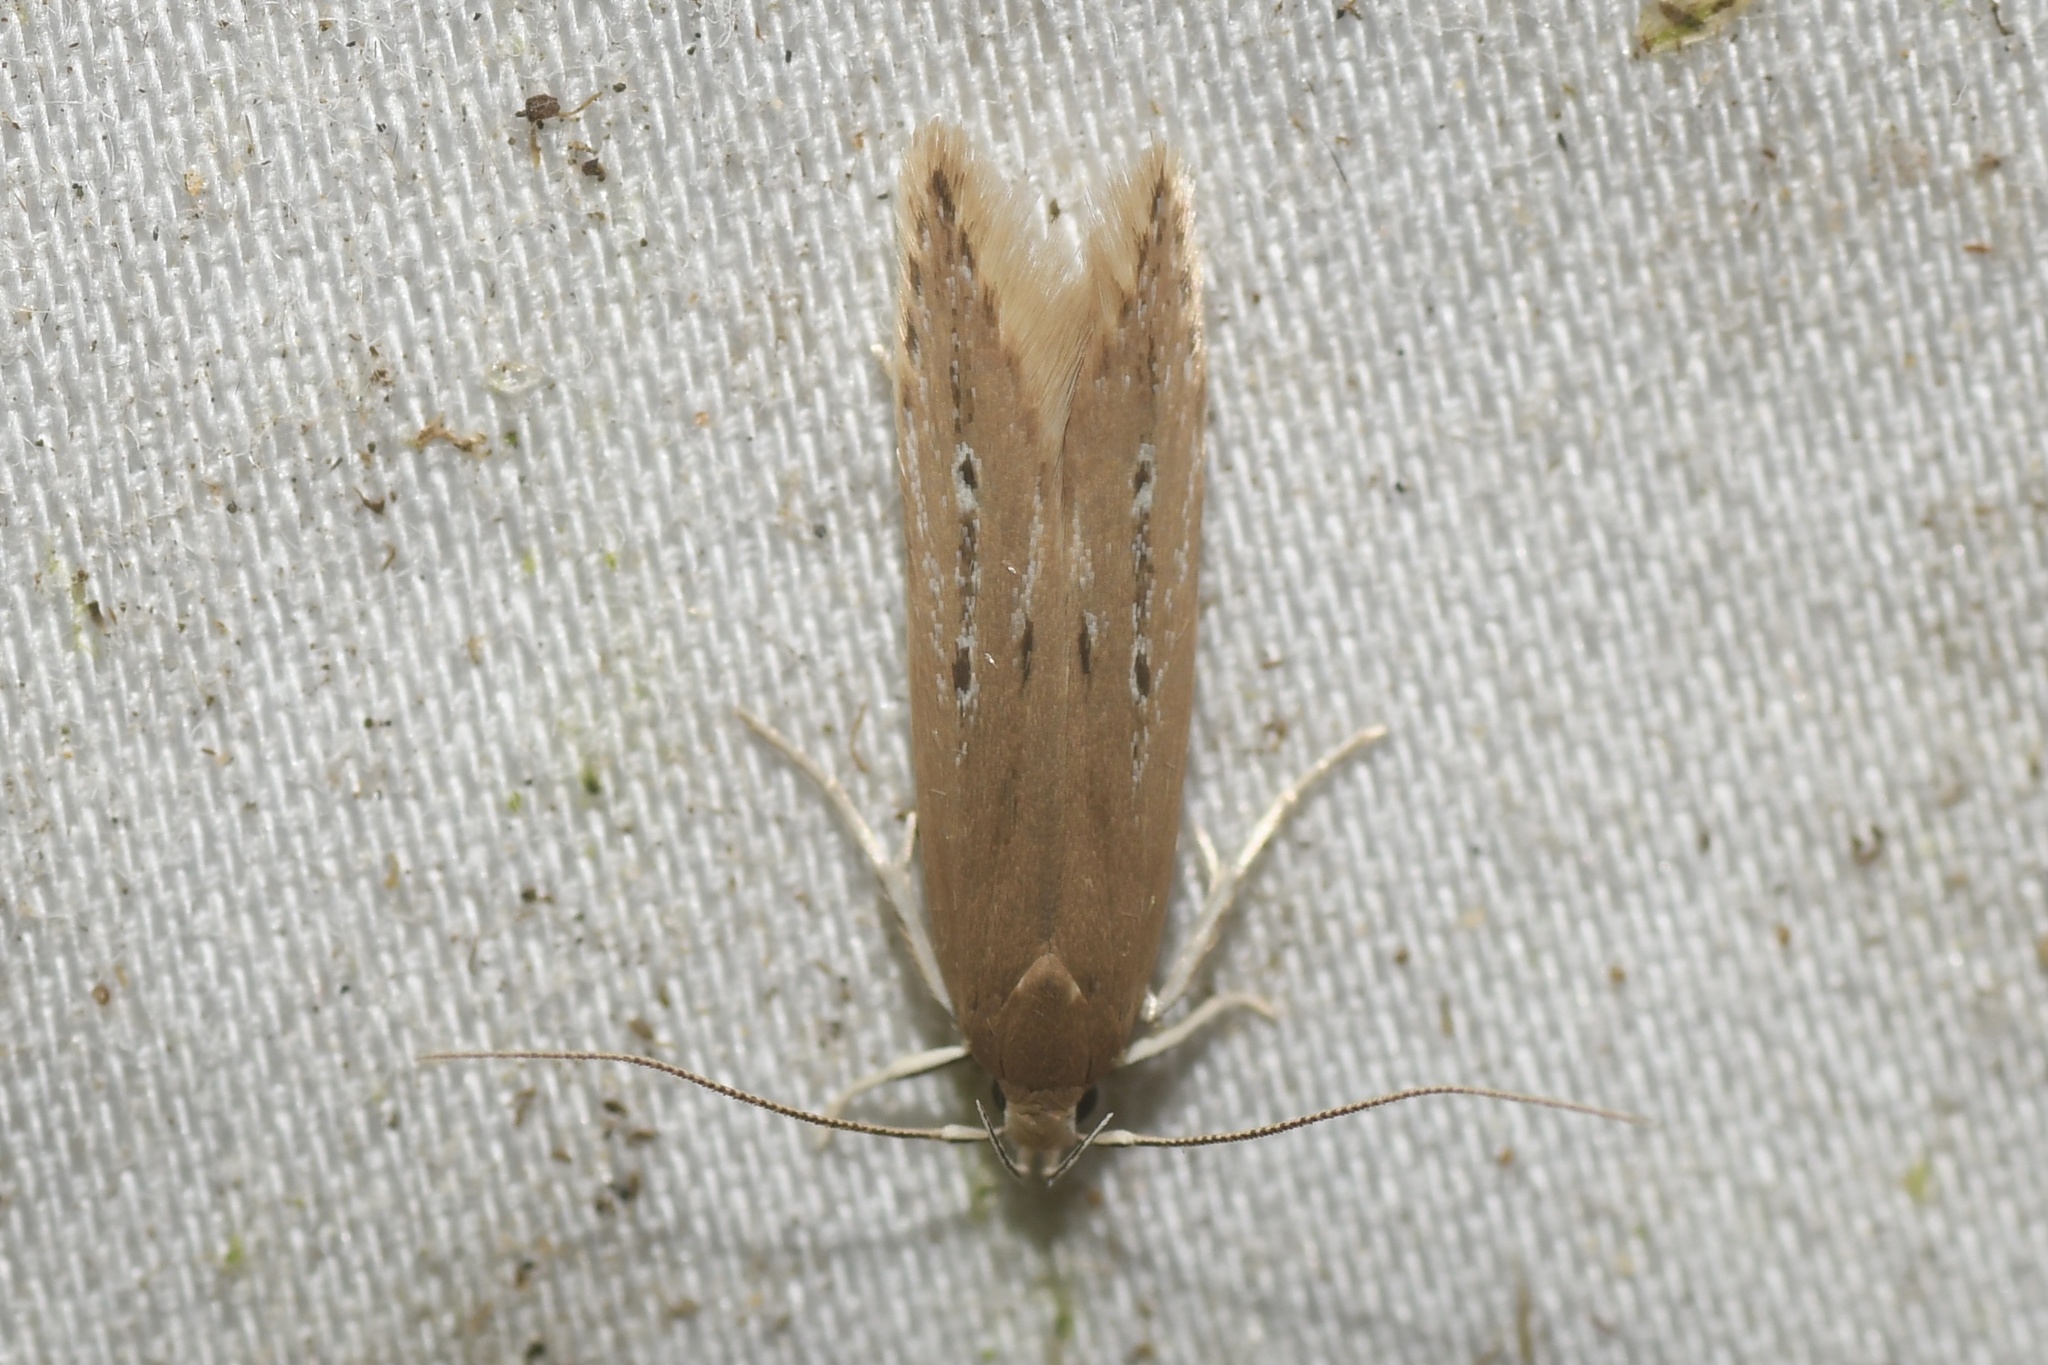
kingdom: Animalia
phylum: Arthropoda
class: Insecta
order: Lepidoptera
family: Cosmopterigidae
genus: Limnaecia
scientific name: Limnaecia phragmitella
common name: Bulrush cosmet
